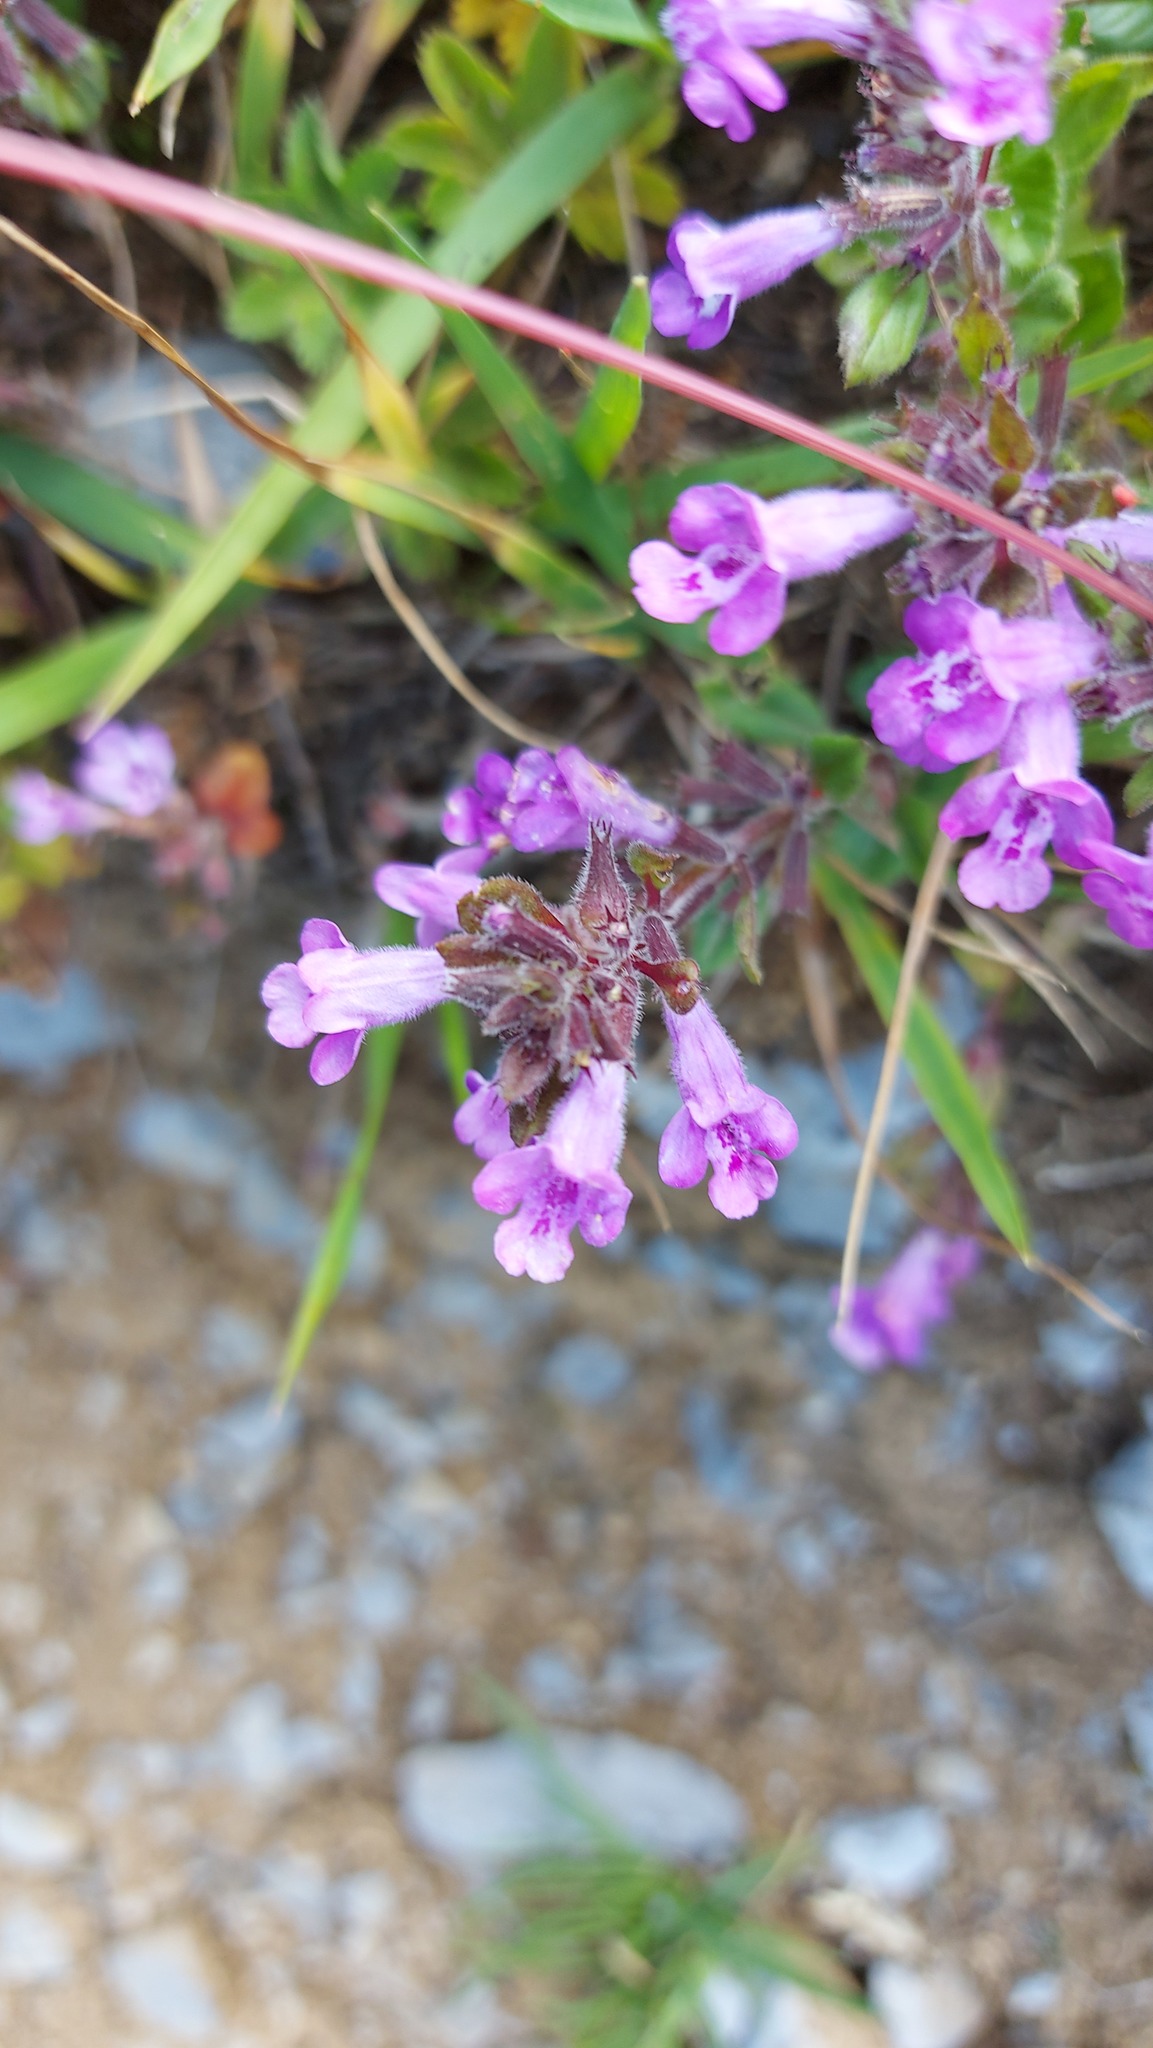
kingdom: Plantae
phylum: Tracheophyta
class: Magnoliopsida
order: Lamiales
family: Lamiaceae
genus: Clinopodium
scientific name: Clinopodium alpinum
